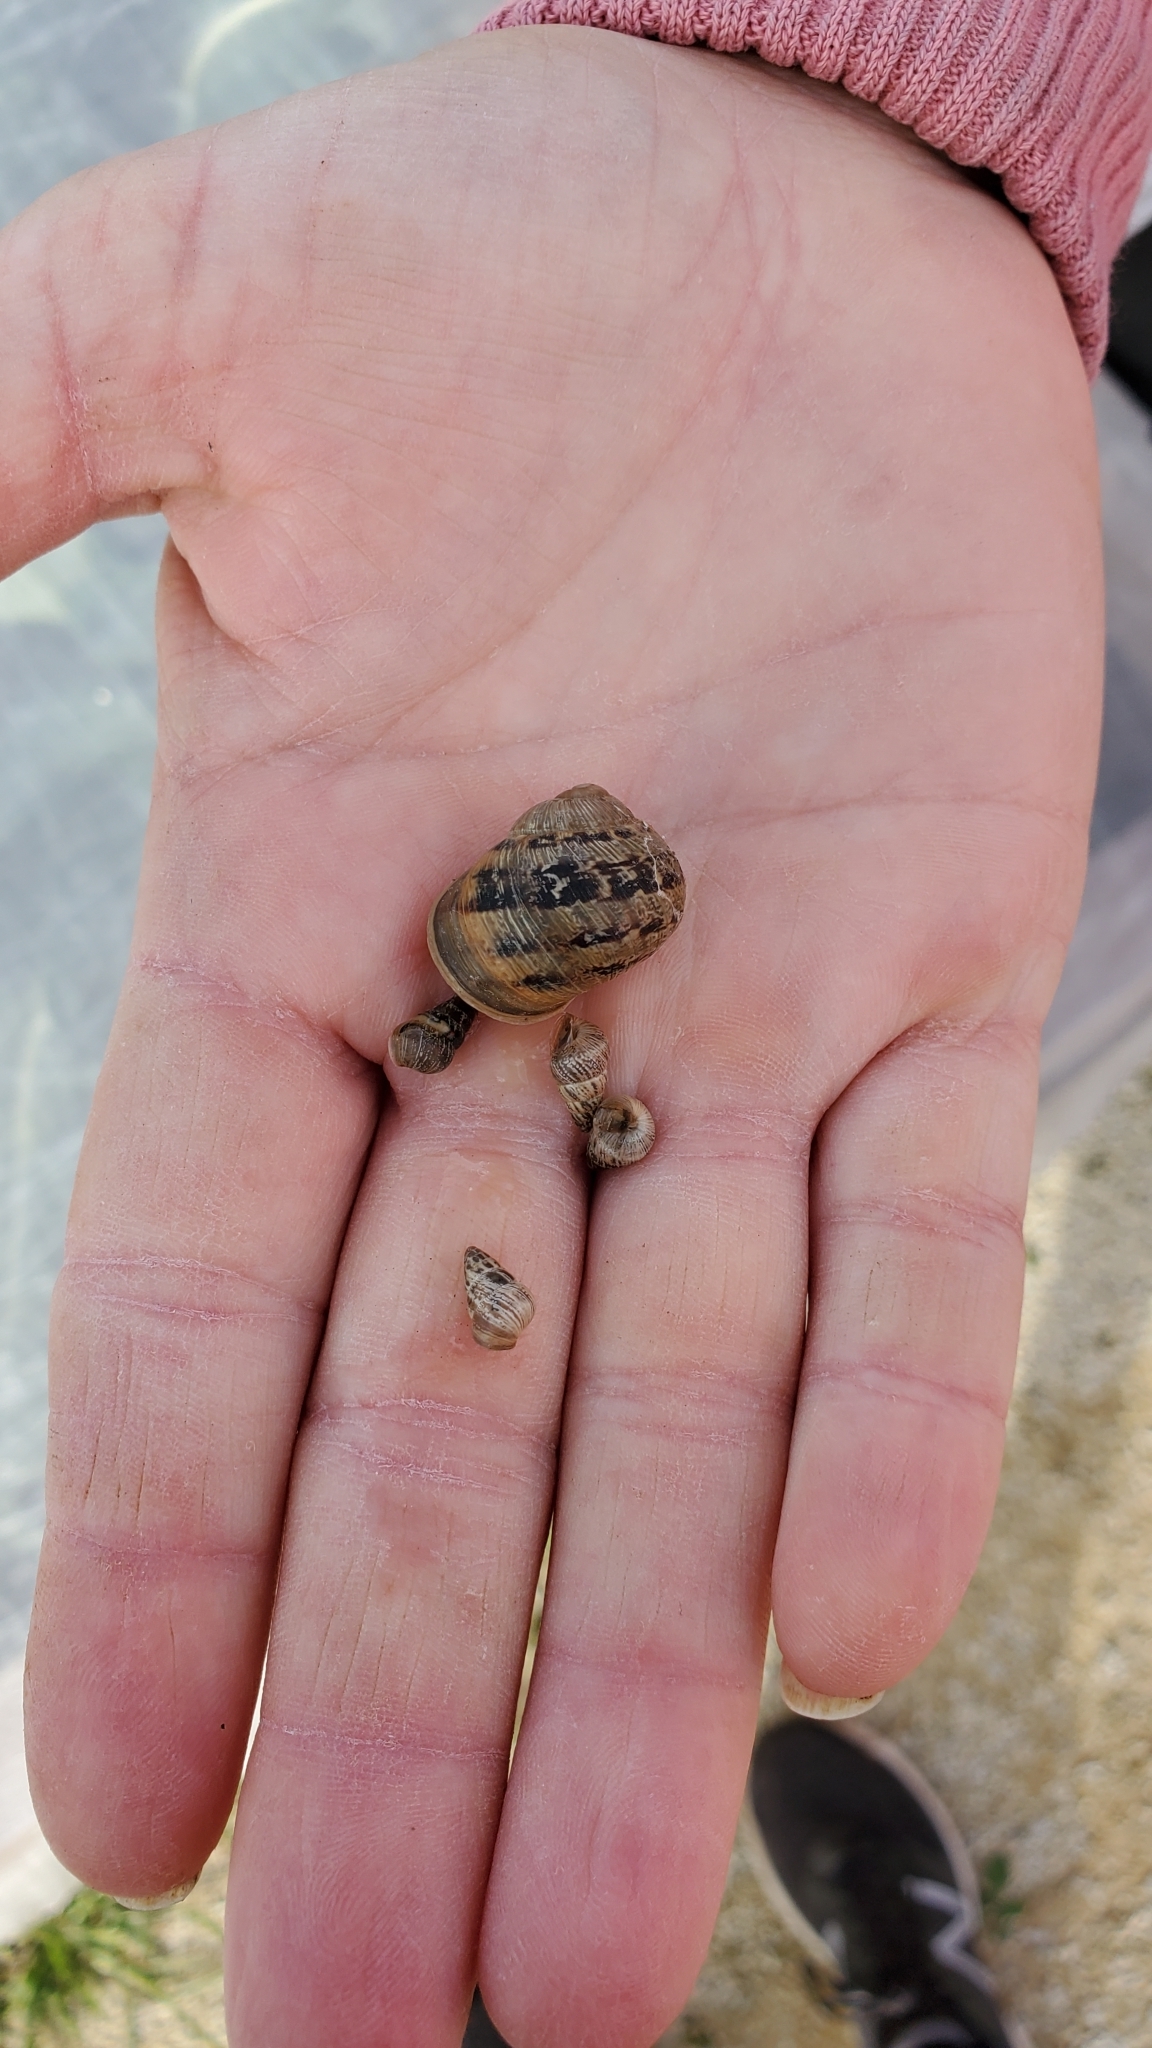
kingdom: Animalia
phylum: Mollusca
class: Gastropoda
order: Stylommatophora
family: Helicidae
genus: Cornu
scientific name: Cornu aspersum
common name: Brown garden snail
